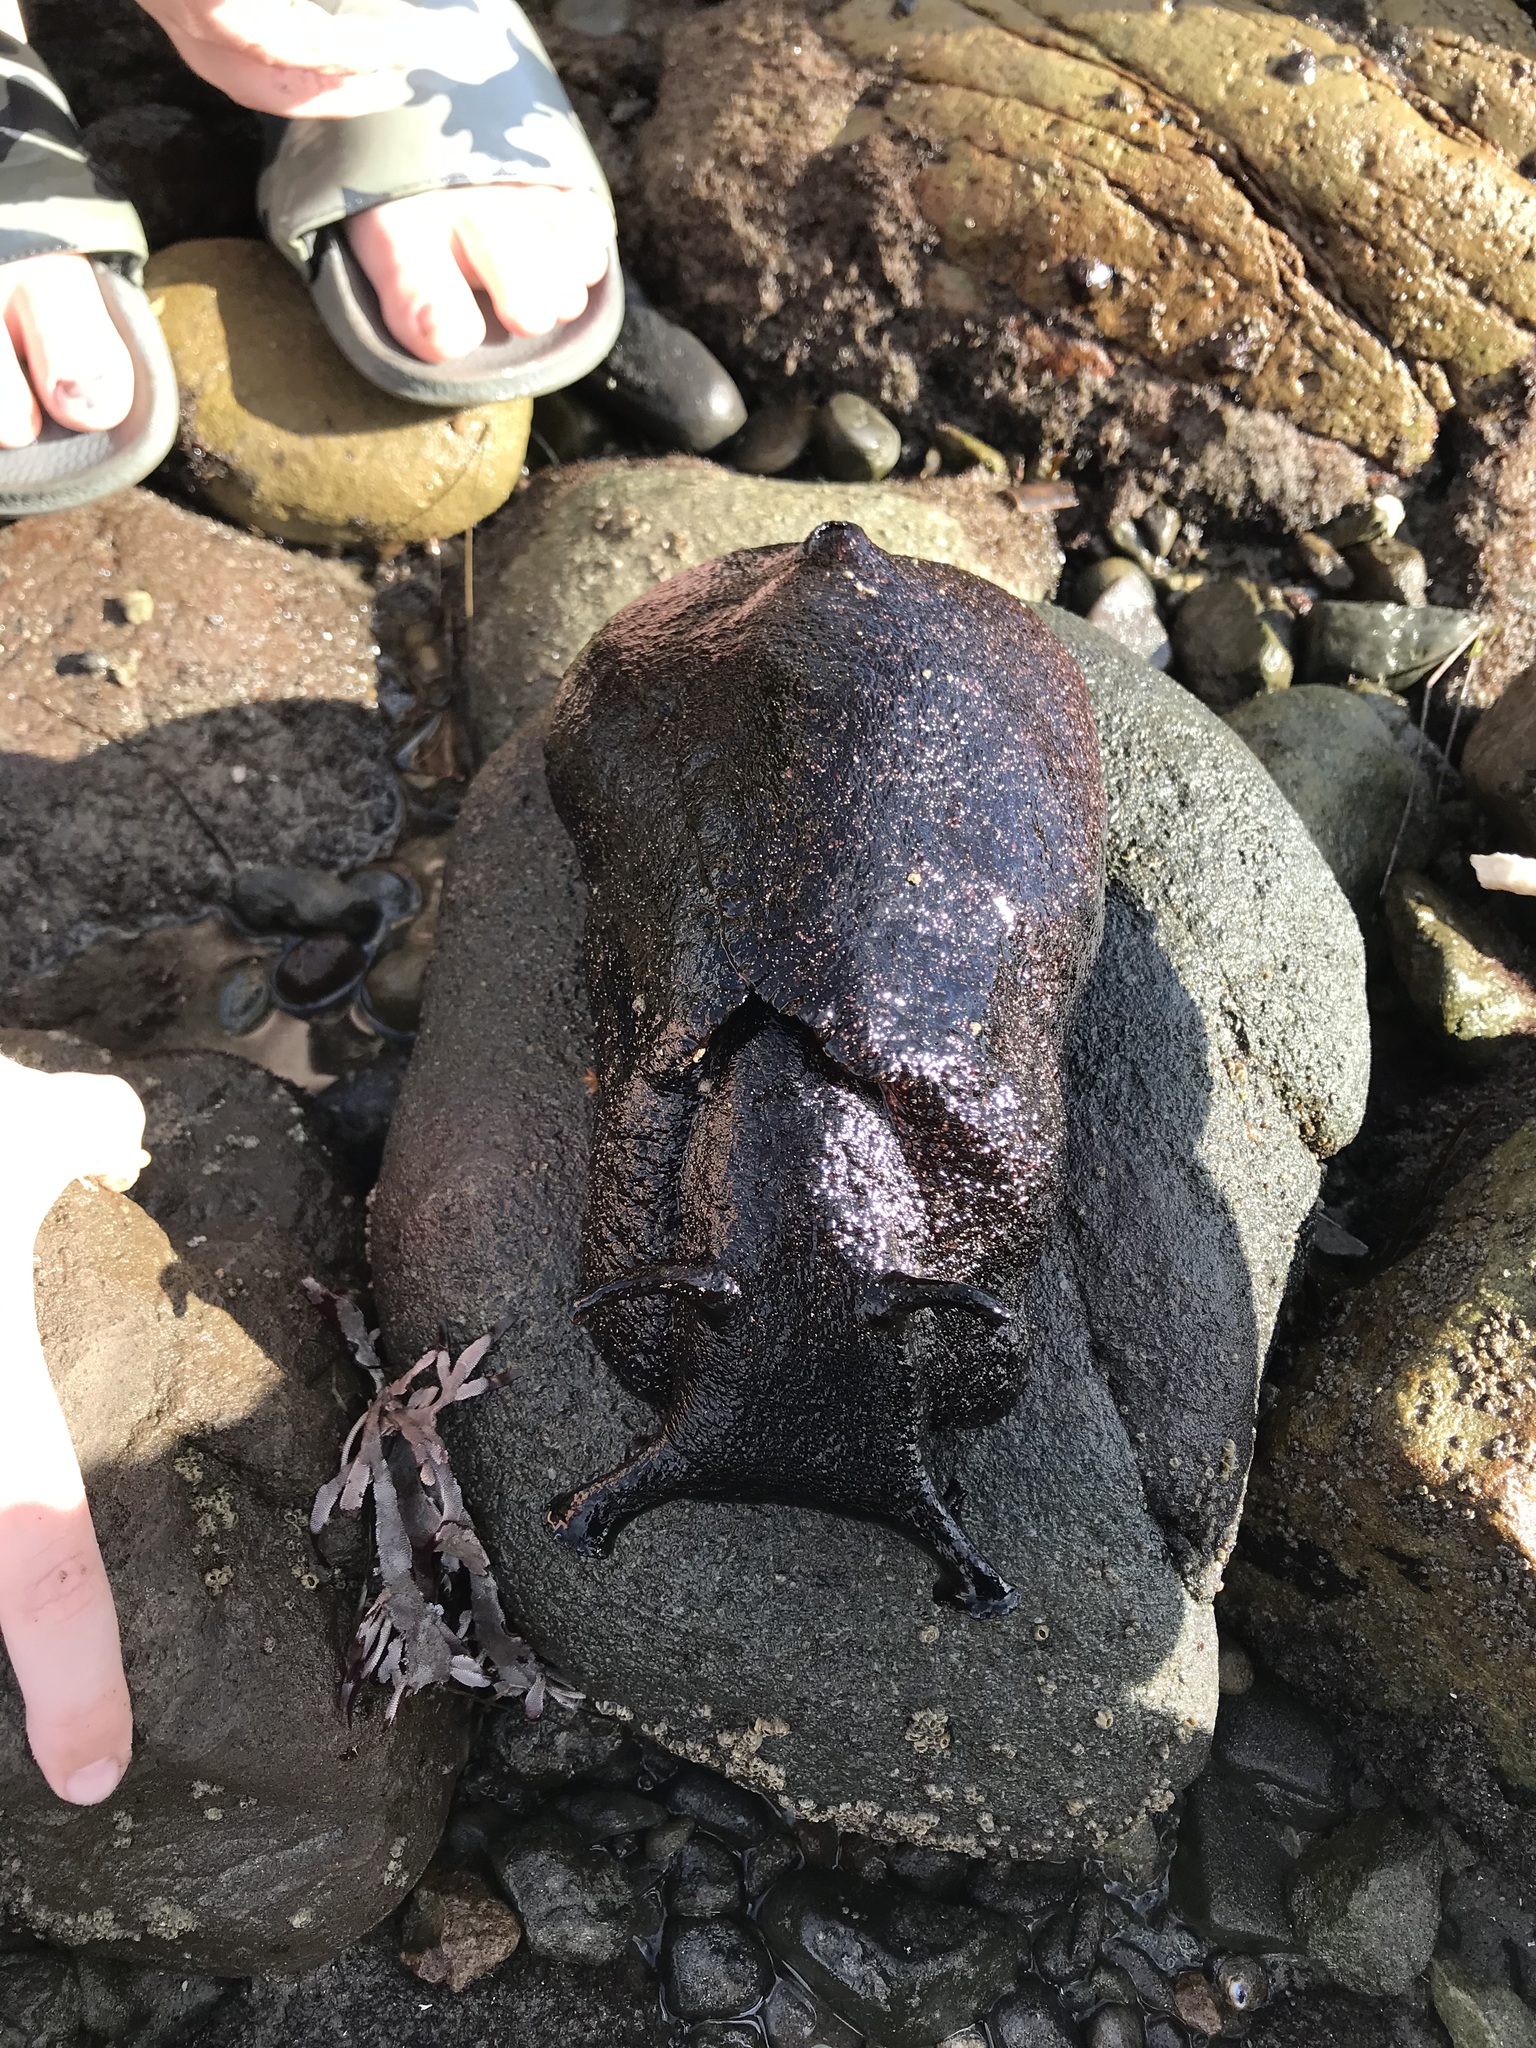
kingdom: Animalia
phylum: Mollusca
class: Gastropoda
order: Aplysiida
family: Aplysiidae
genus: Aplysia
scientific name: Aplysia vaccaria
